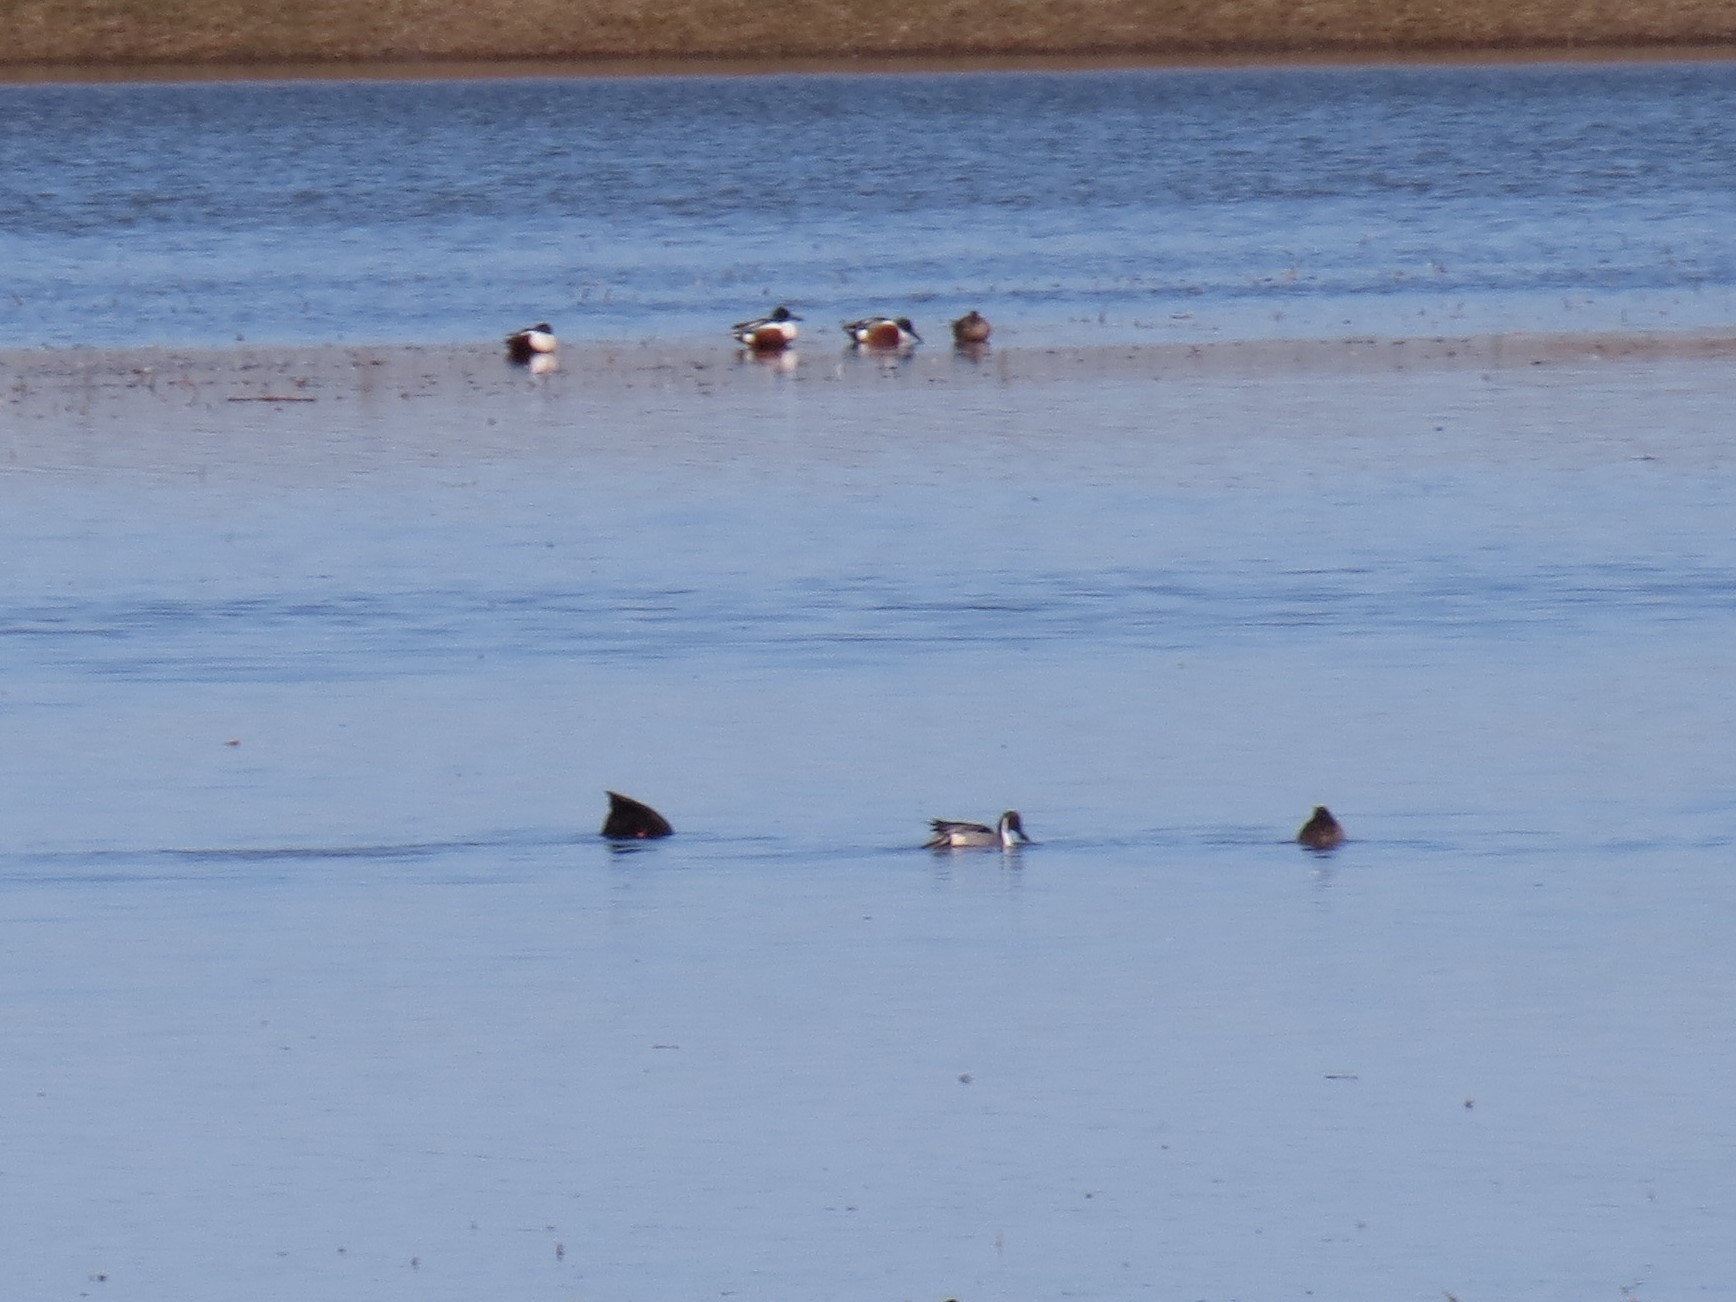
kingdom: Animalia
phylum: Chordata
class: Aves
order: Anseriformes
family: Anatidae
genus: Spatula
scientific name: Spatula clypeata
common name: Northern shoveler
